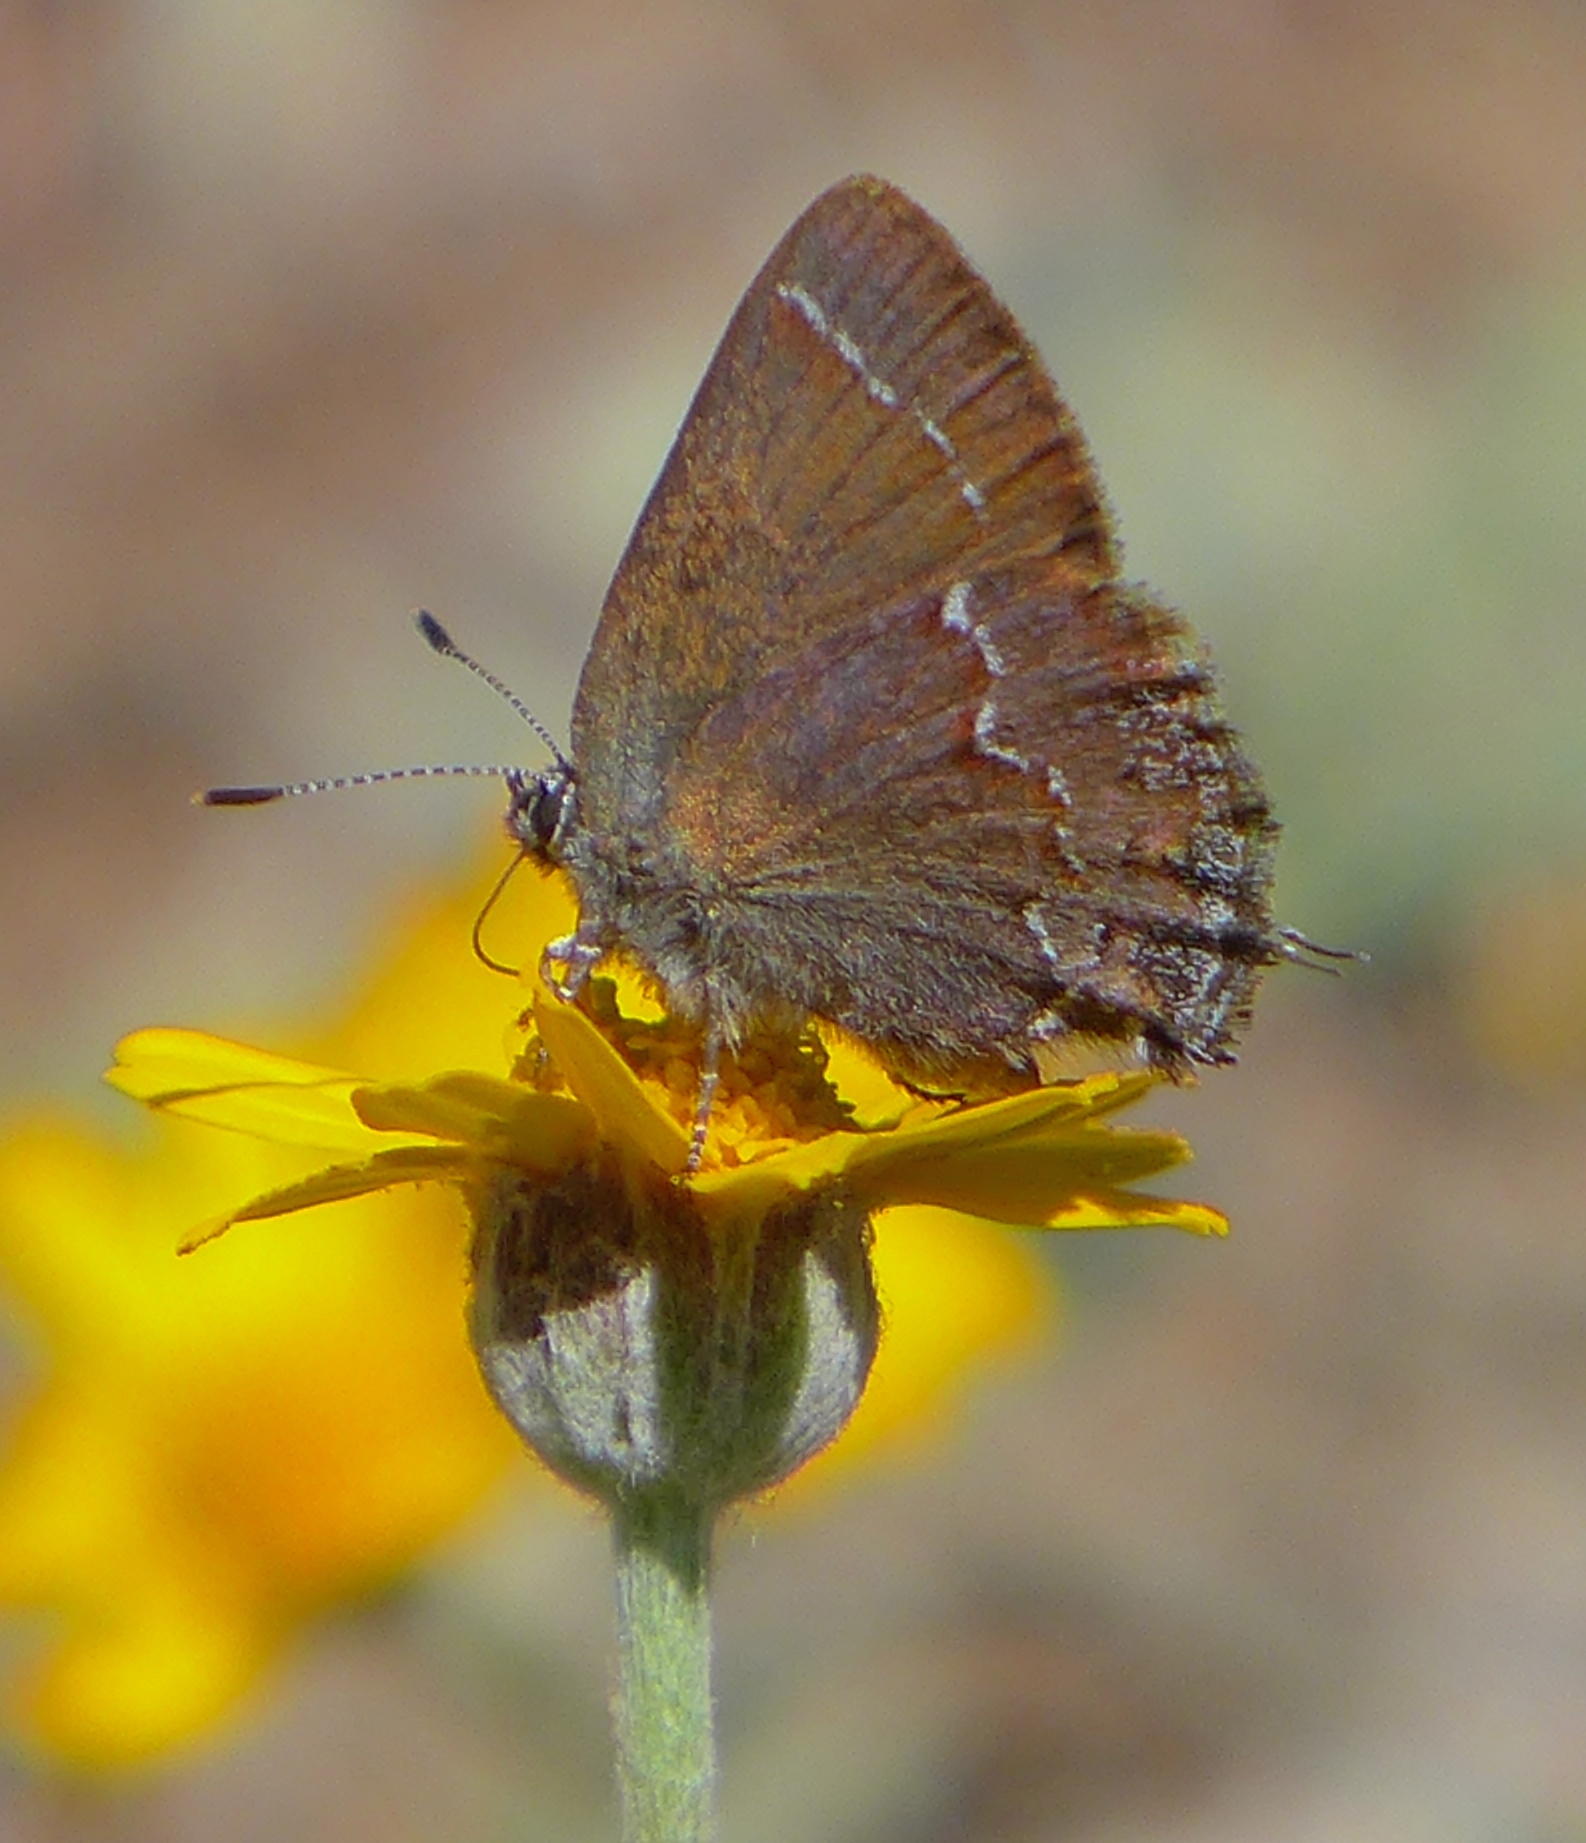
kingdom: Animalia
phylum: Arthropoda
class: Insecta
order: Lepidoptera
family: Lycaenidae
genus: Callophrys
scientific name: Callophrys muiri
